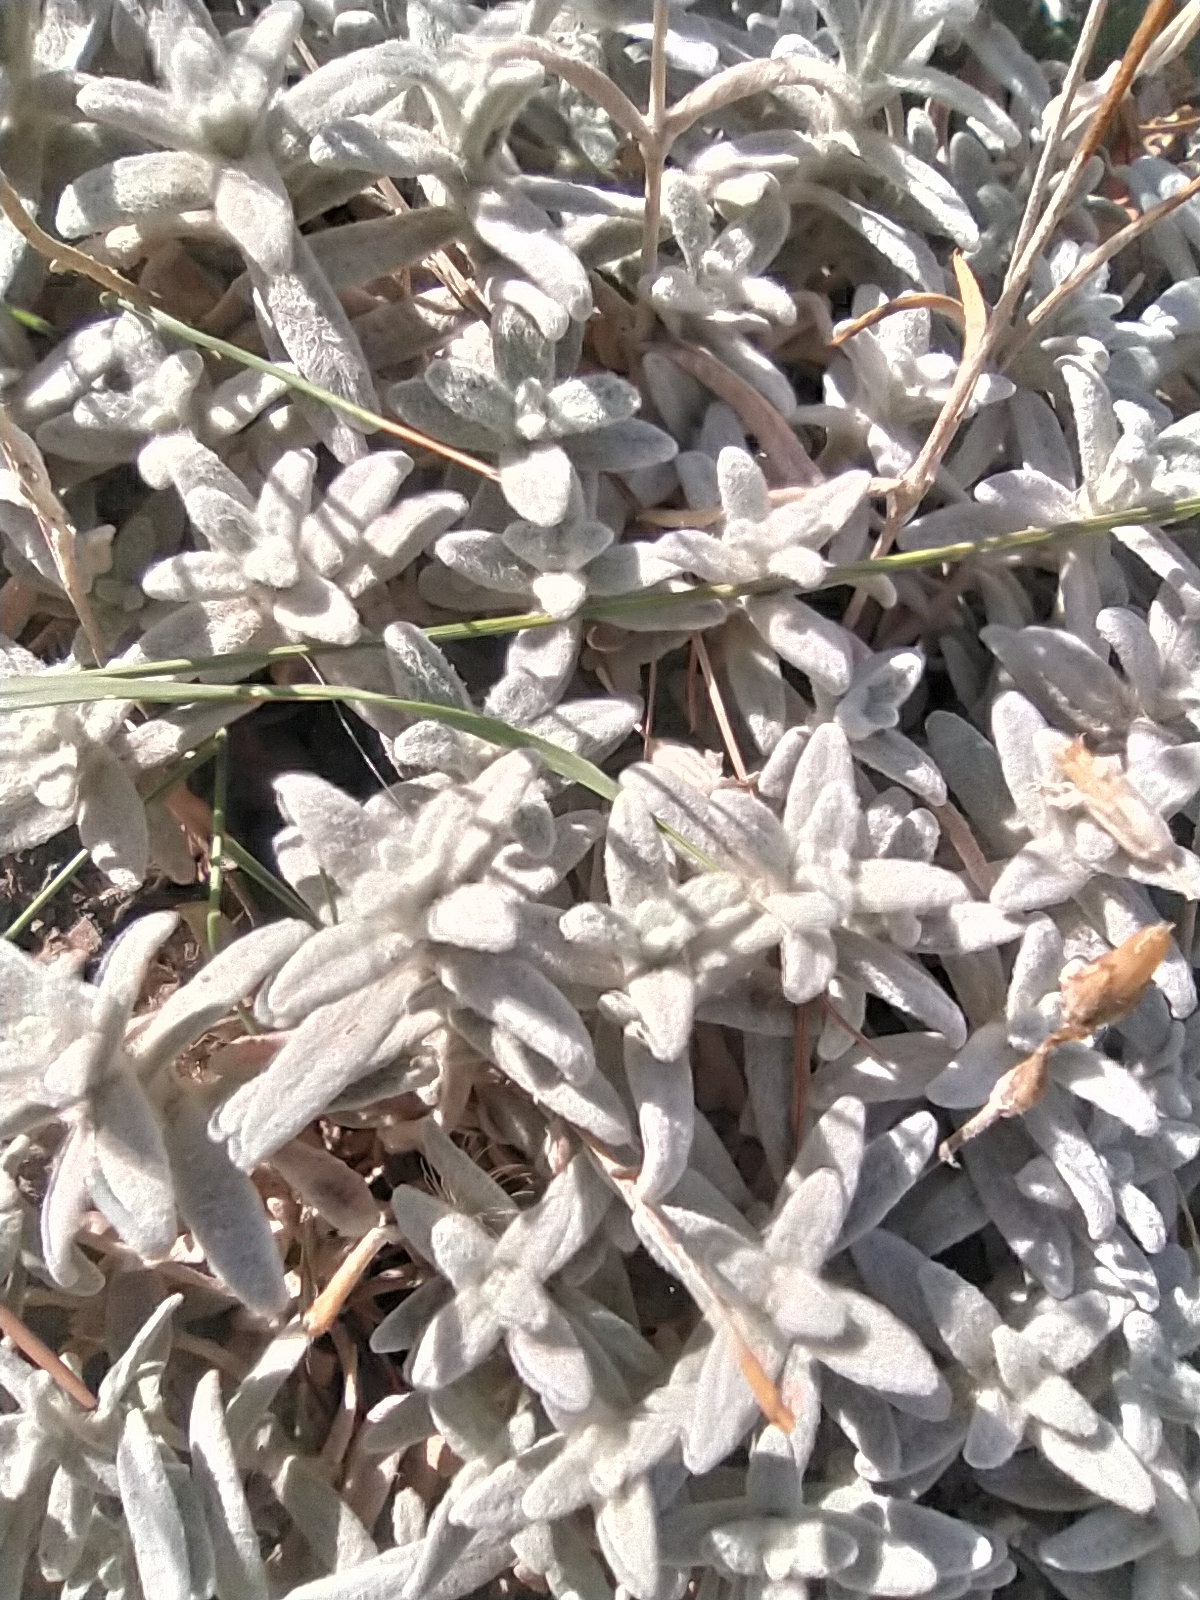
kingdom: Plantae
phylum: Tracheophyta
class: Magnoliopsida
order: Caryophyllales
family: Caryophyllaceae
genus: Cerastium
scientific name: Cerastium biebersteinii
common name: Snow-in-summer
